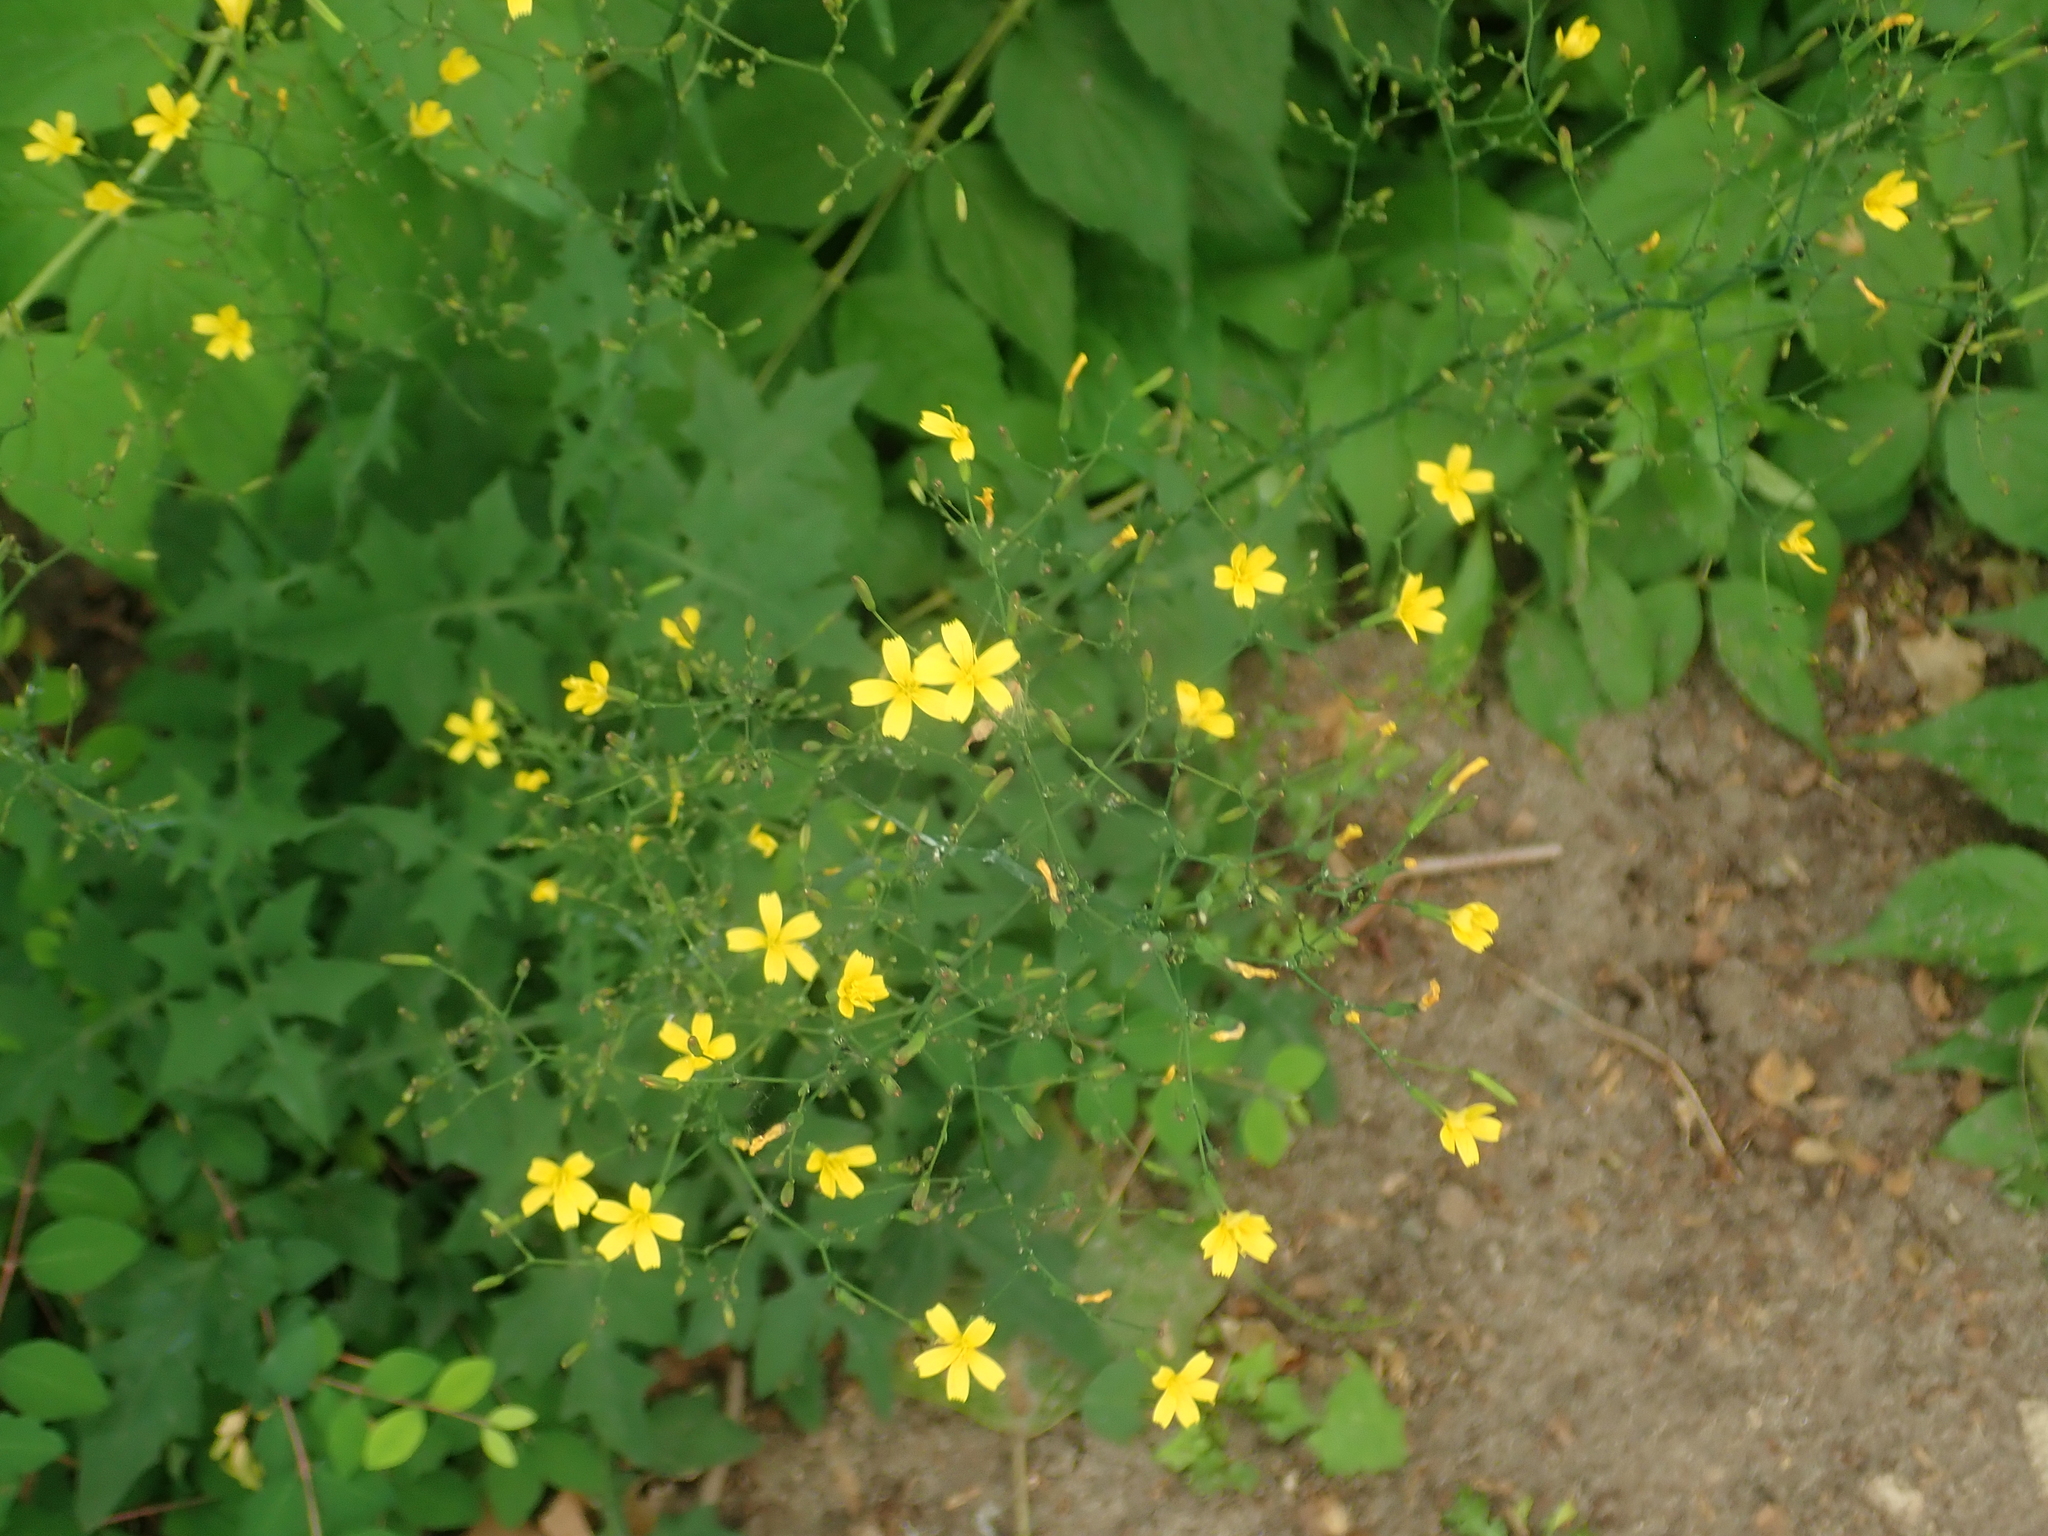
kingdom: Plantae
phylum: Tracheophyta
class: Magnoliopsida
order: Asterales
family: Asteraceae
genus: Mycelis
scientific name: Mycelis muralis
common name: Wall lettuce
